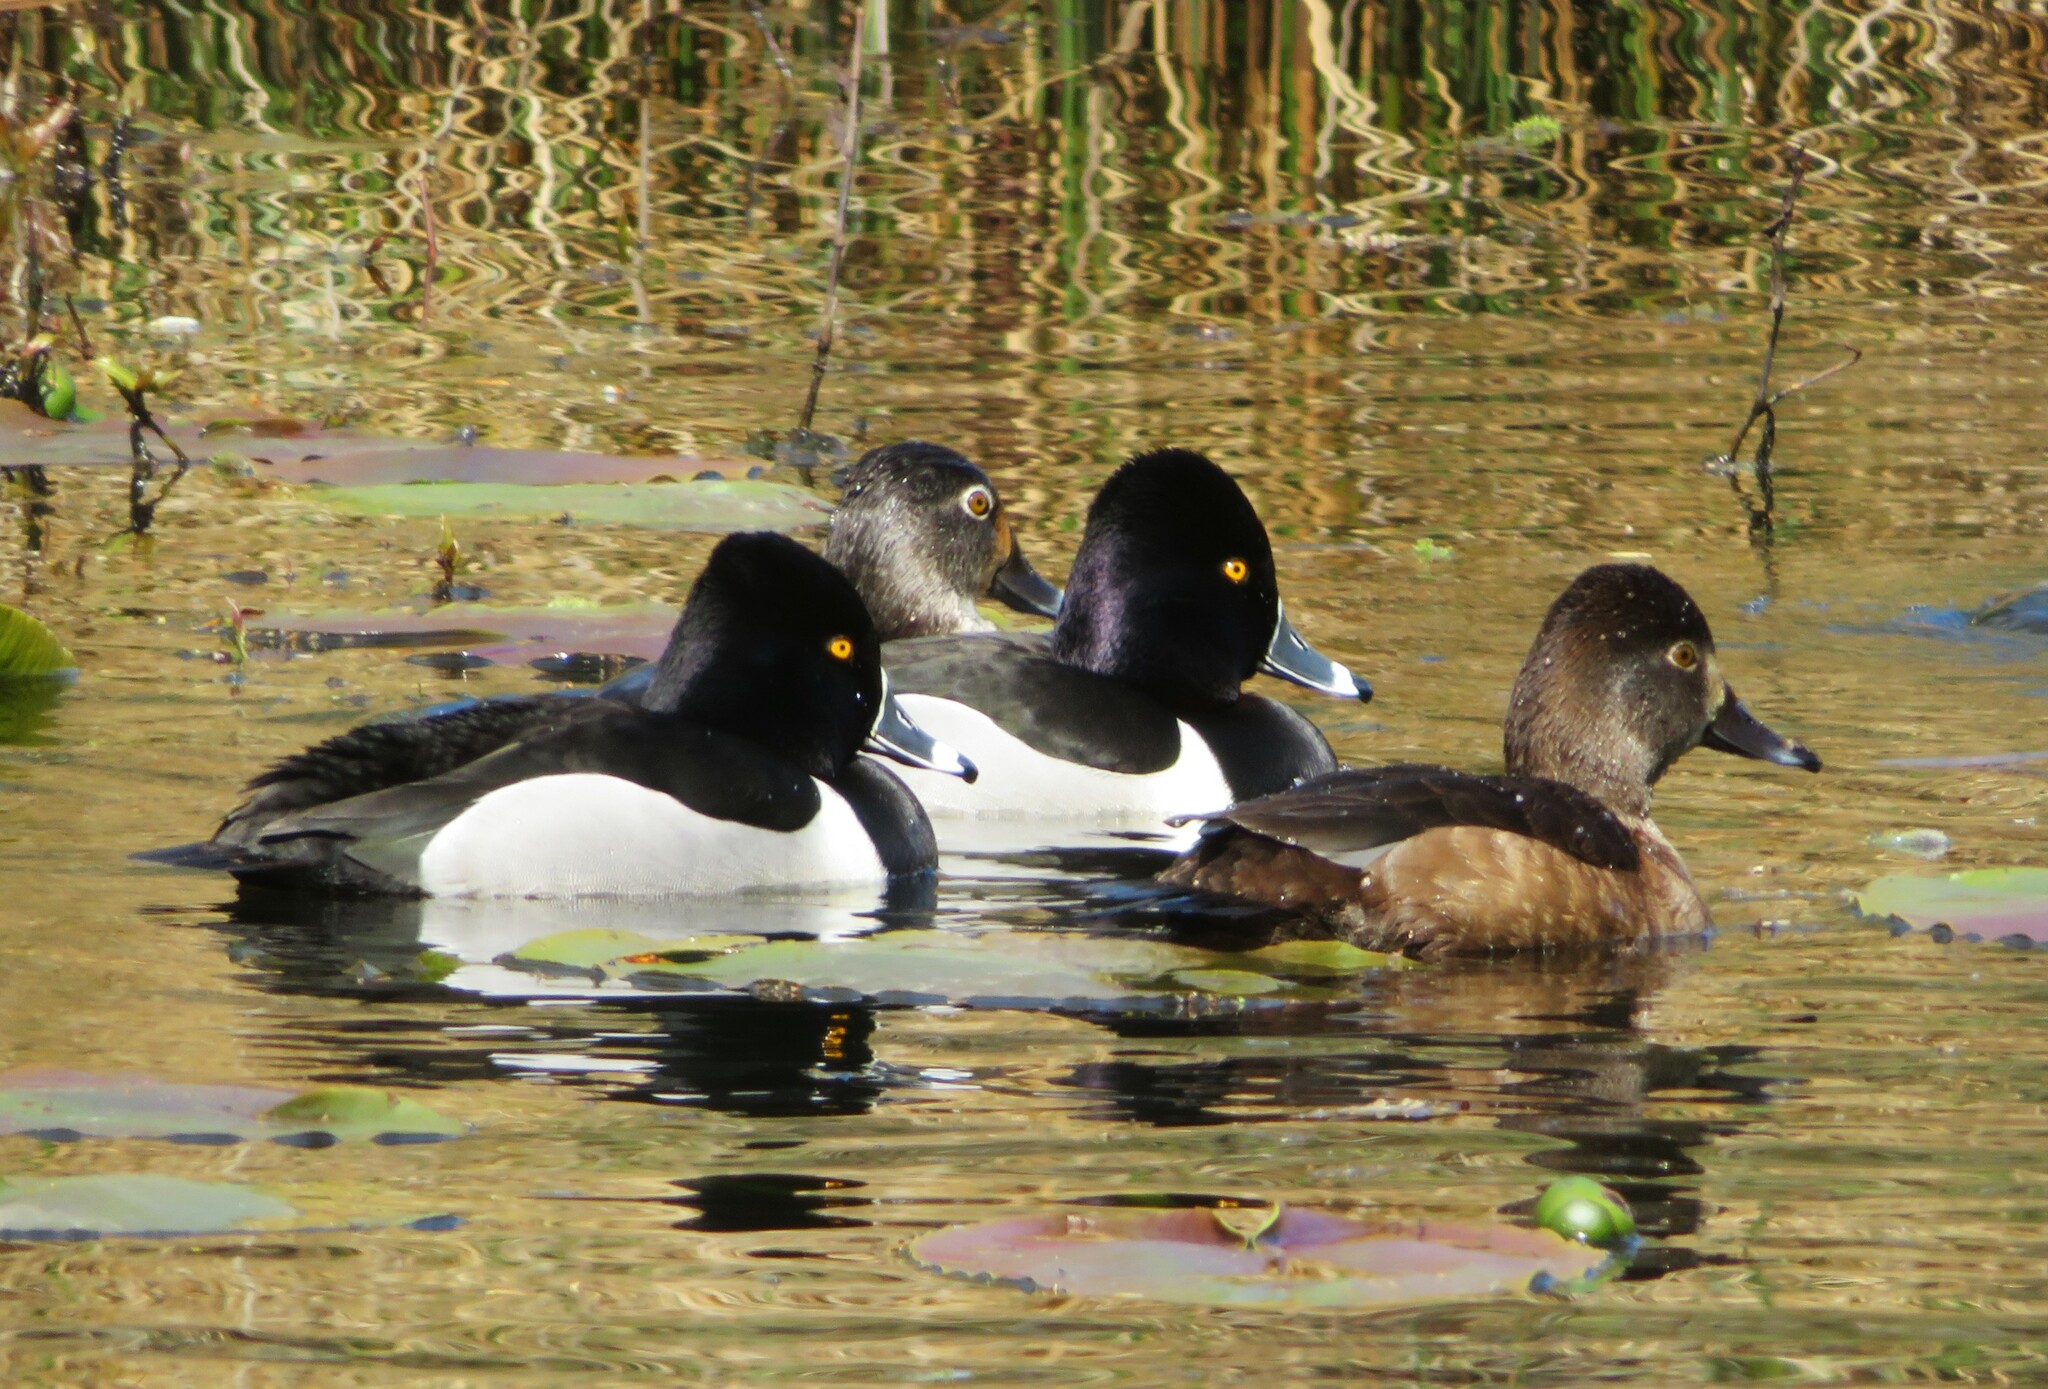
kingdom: Animalia
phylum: Chordata
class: Aves
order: Anseriformes
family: Anatidae
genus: Aythya
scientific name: Aythya collaris
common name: Ring-necked duck
